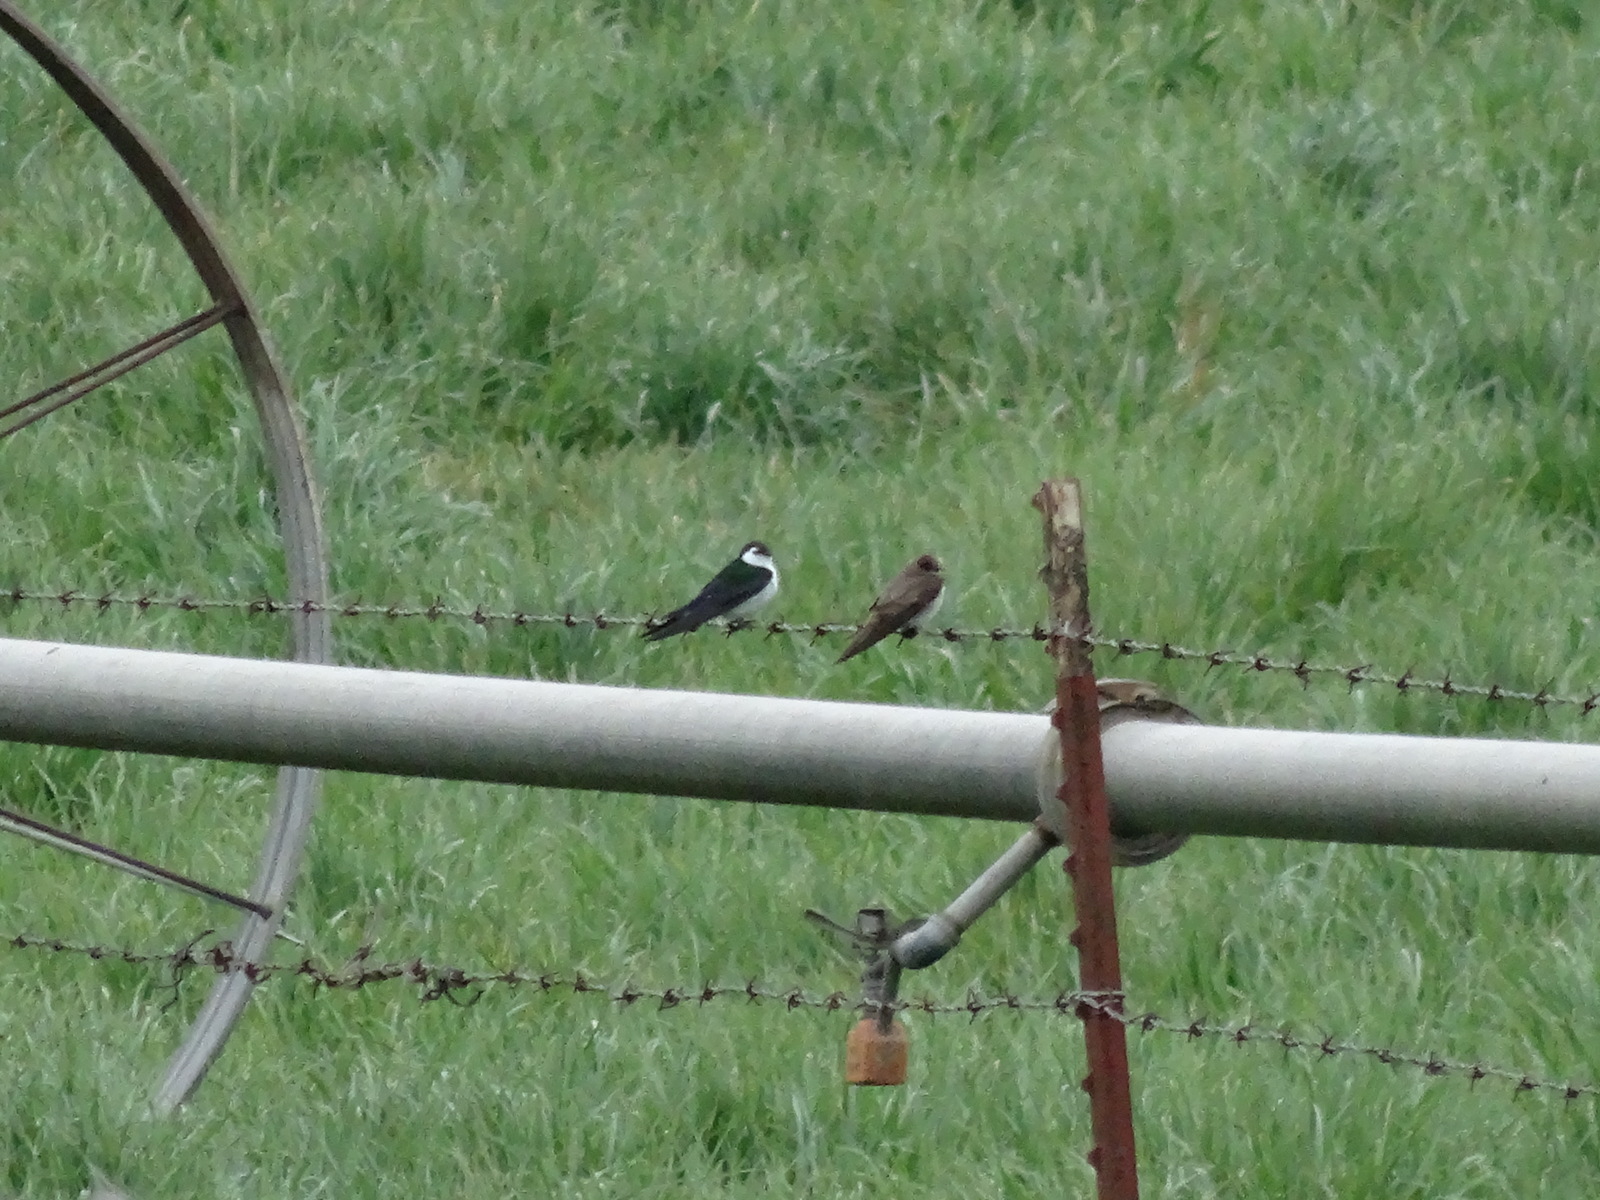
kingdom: Animalia
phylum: Chordata
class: Aves
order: Passeriformes
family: Hirundinidae
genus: Tachycineta
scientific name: Tachycineta thalassina
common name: Violet-green swallow
